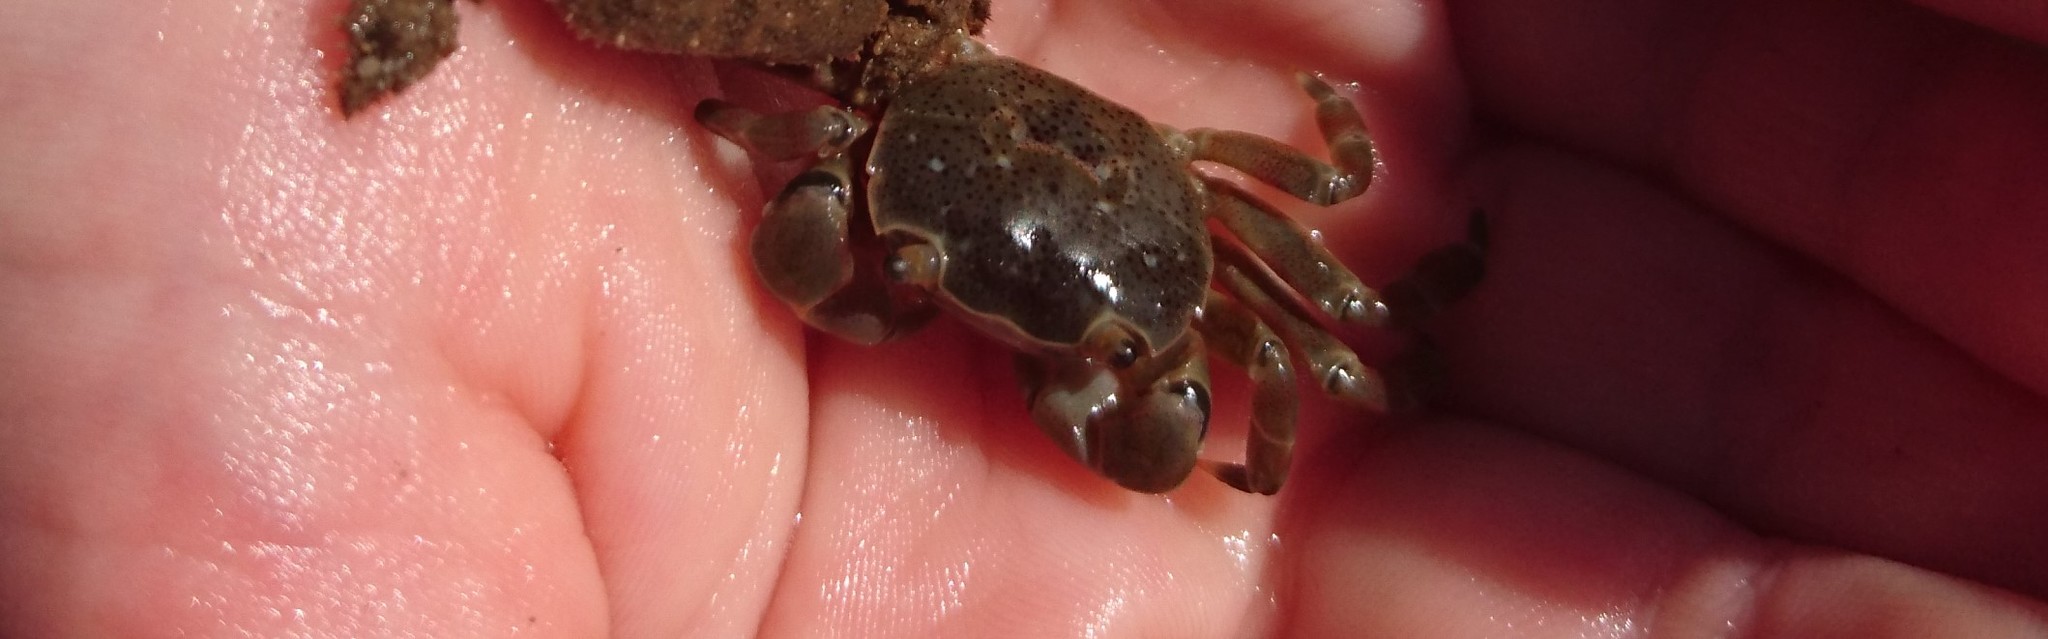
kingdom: Animalia
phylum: Arthropoda
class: Malacostraca
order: Decapoda
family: Varunidae
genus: Paragrapsus
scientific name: Paragrapsus quadridentatus
